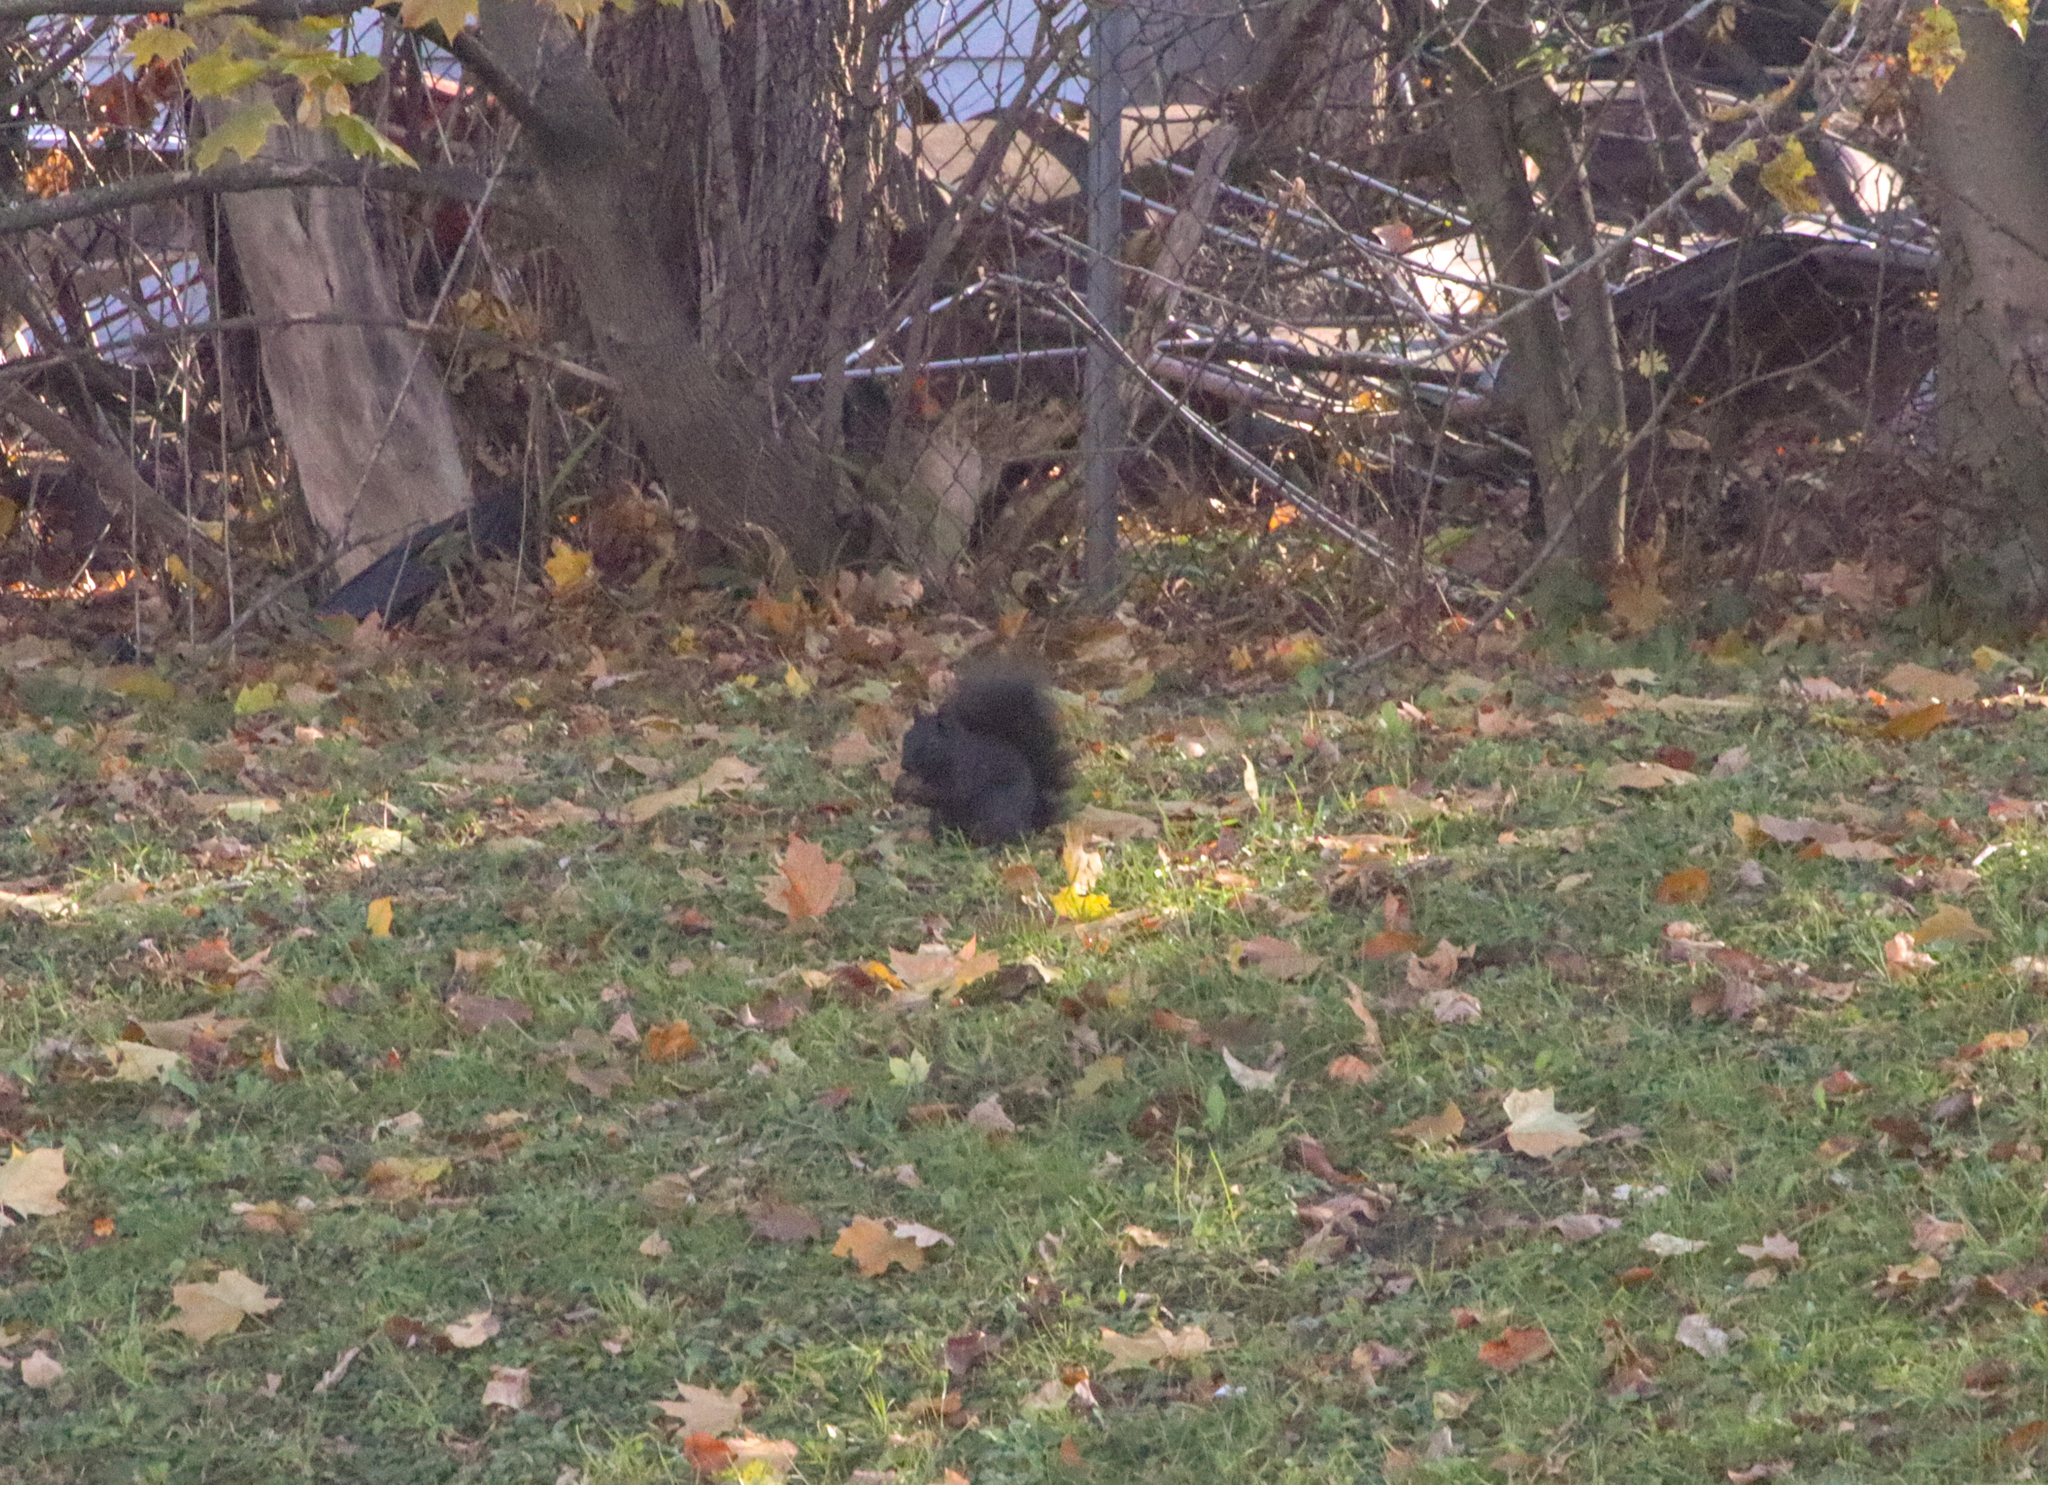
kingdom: Animalia
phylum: Chordata
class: Mammalia
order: Rodentia
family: Sciuridae
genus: Sciurus
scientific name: Sciurus carolinensis
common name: Eastern gray squirrel
